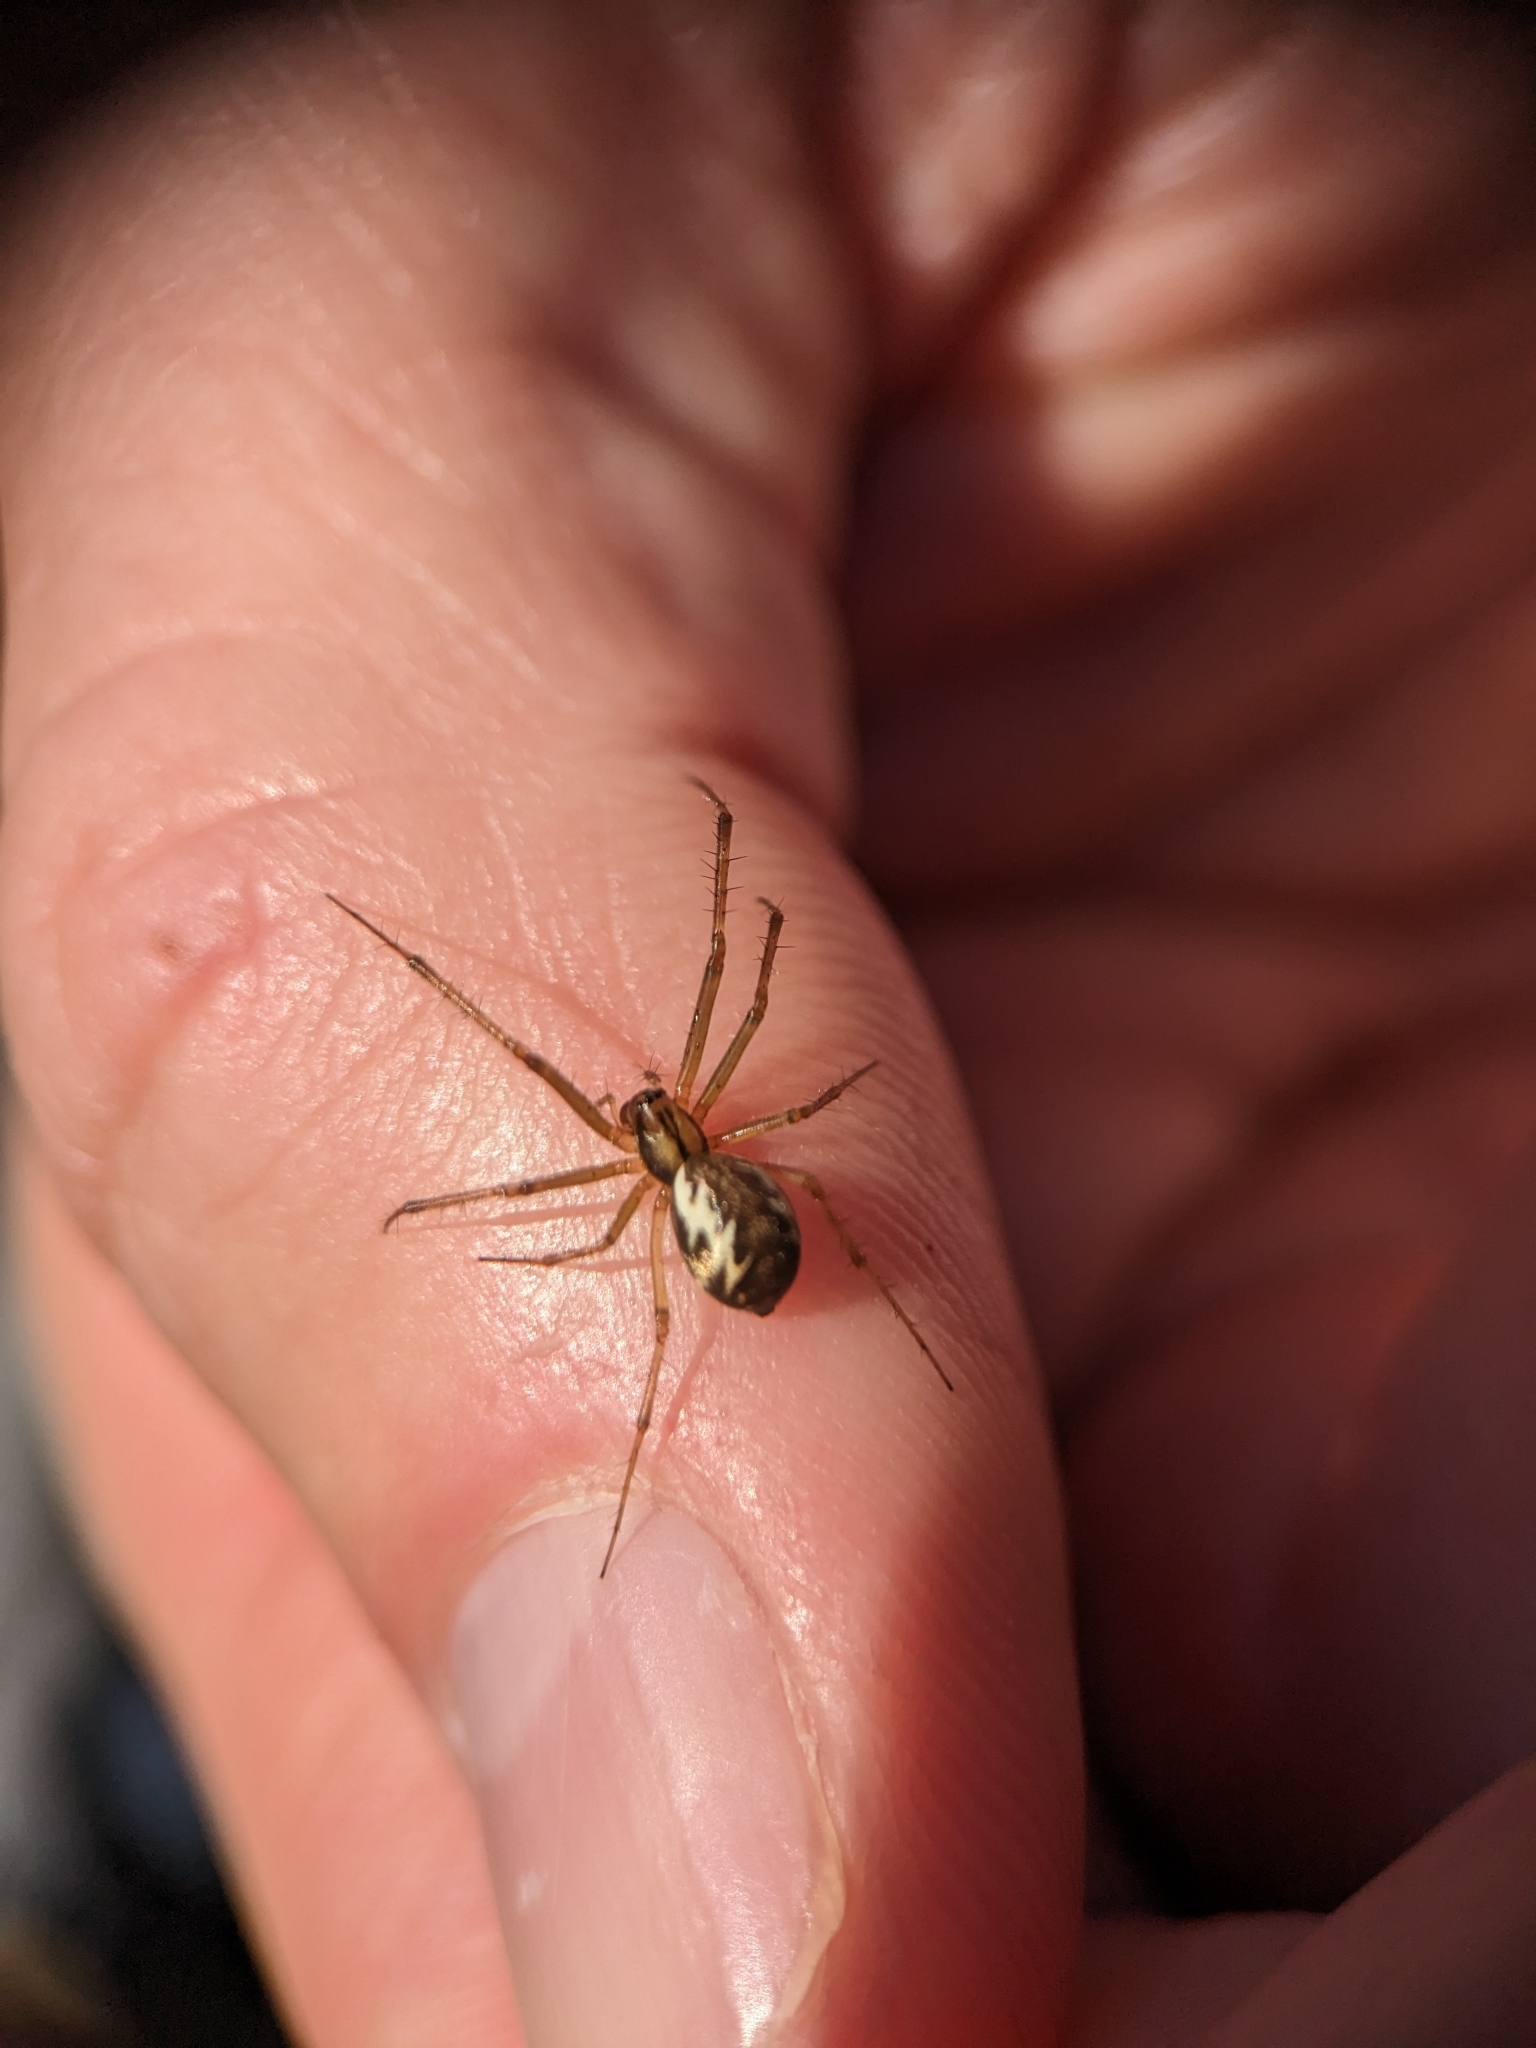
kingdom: Animalia
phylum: Arthropoda
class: Arachnida
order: Araneae
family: Linyphiidae
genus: Linyphia
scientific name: Linyphia triangularis
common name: Money spider
